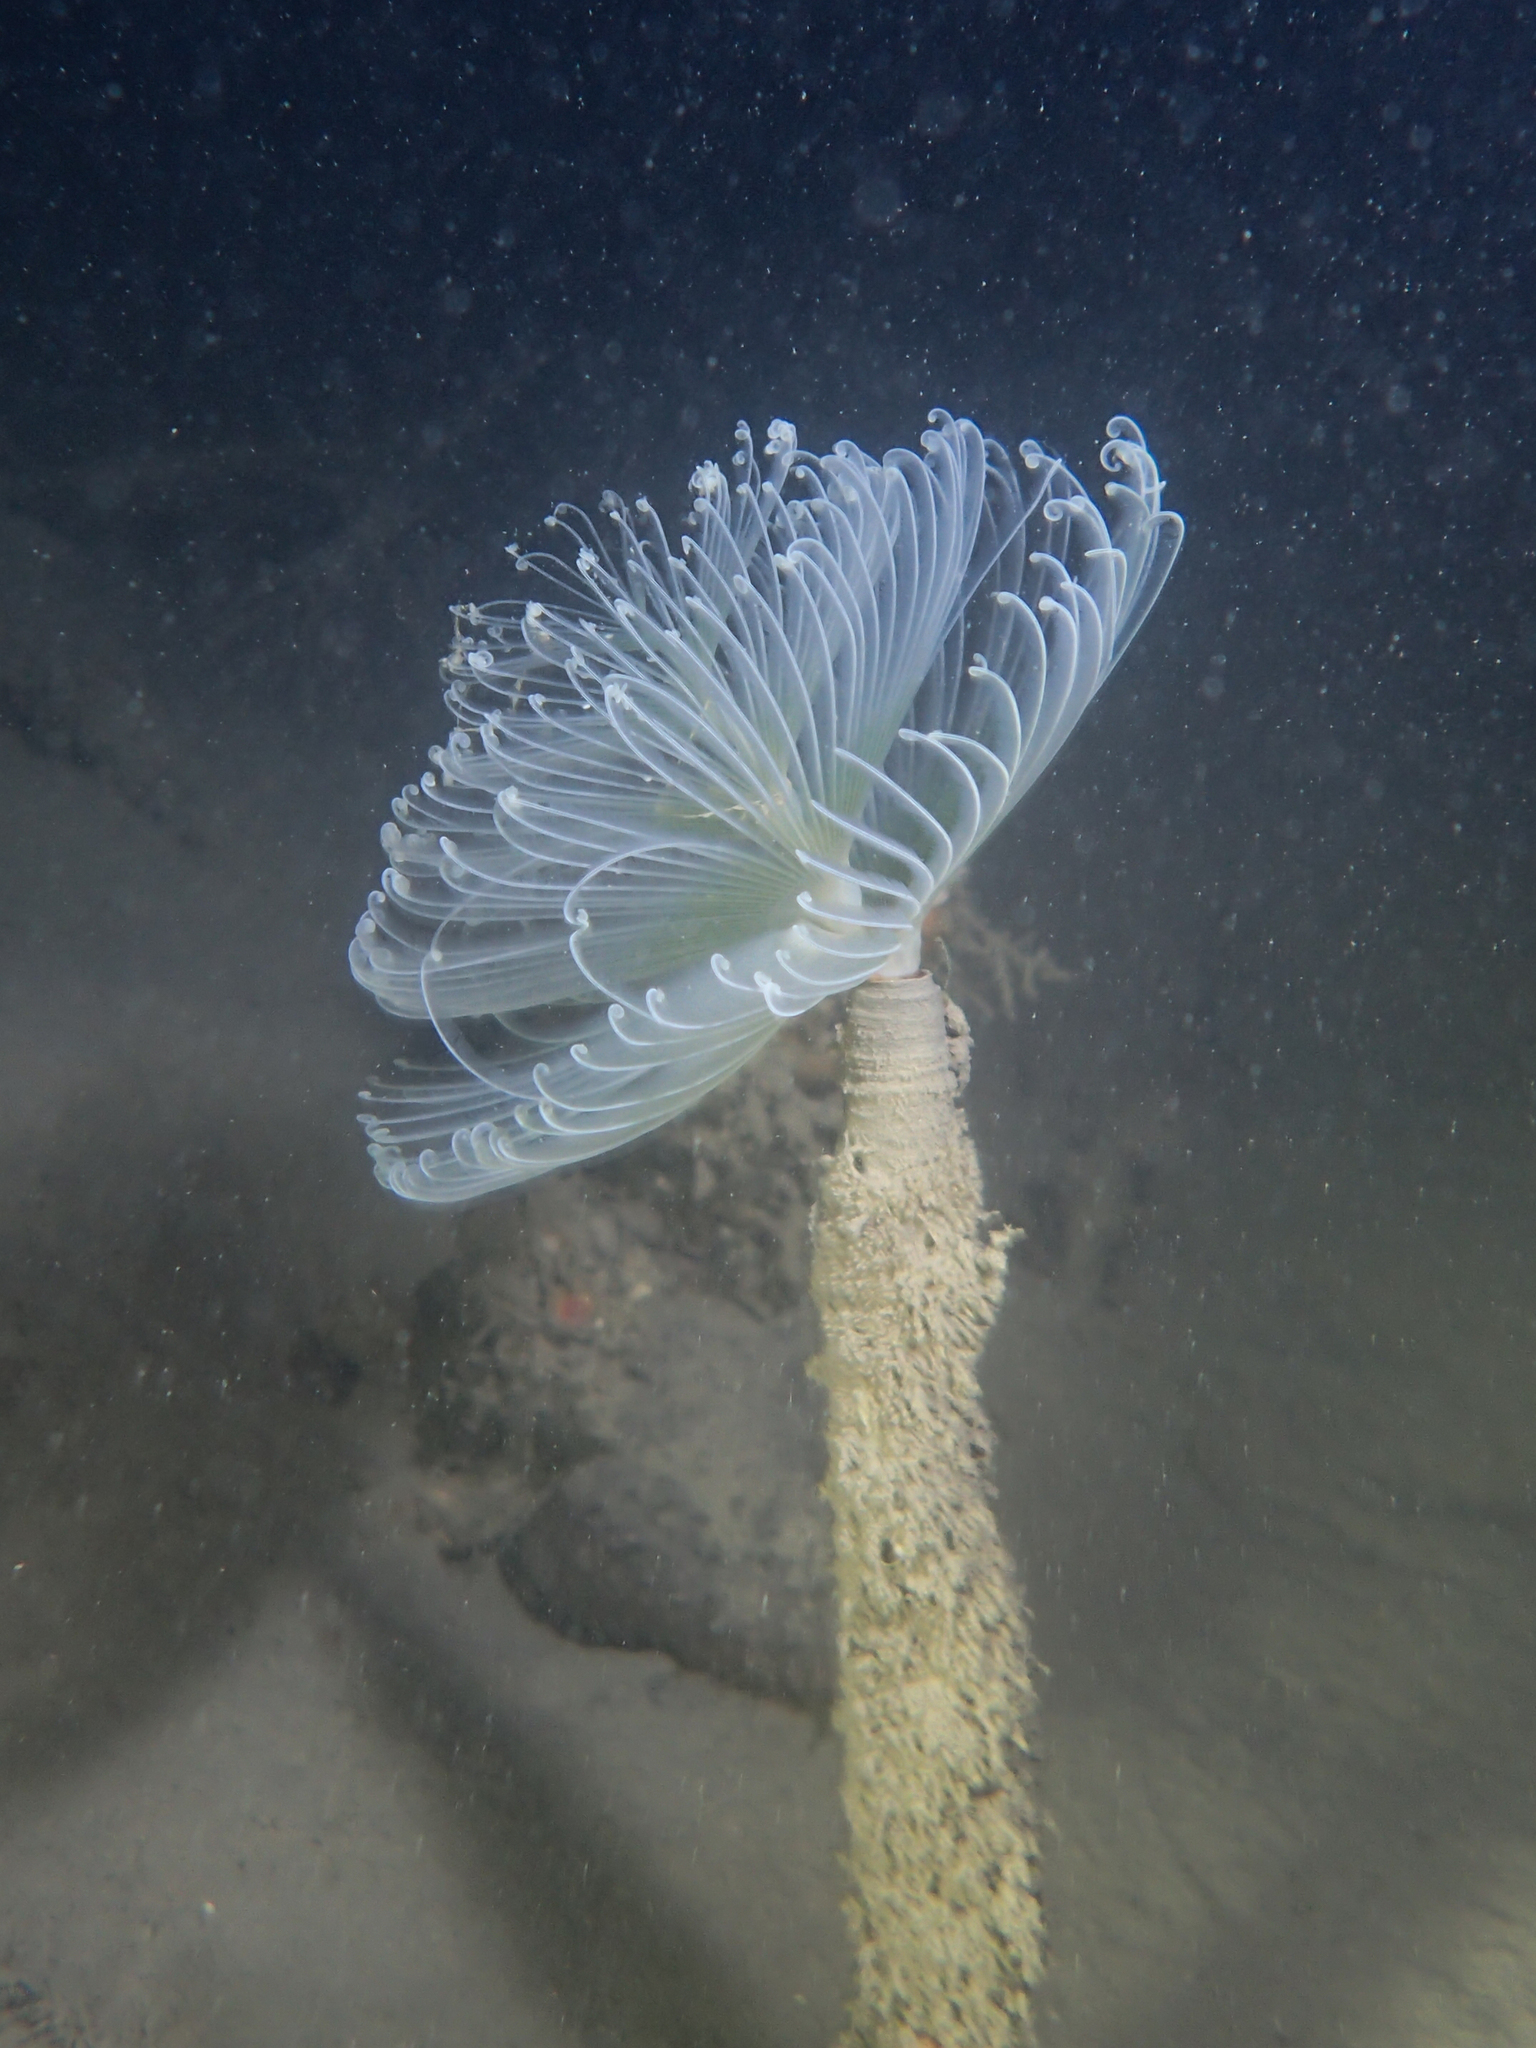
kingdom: Animalia
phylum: Annelida
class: Polychaeta
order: Sabellida
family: Sabellidae
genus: Sabella
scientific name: Sabella spallanzanii
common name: Feather duster worm
